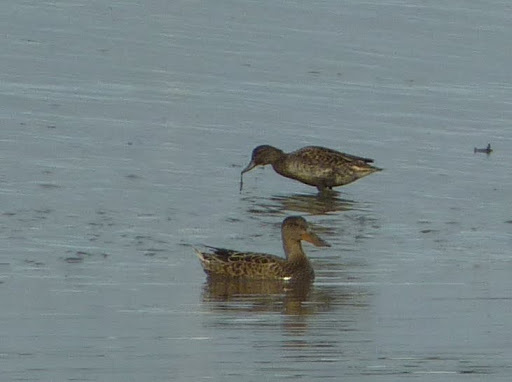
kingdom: Animalia
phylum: Chordata
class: Aves
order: Anseriformes
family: Anatidae
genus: Anas
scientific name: Anas crecca
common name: Eurasian teal
